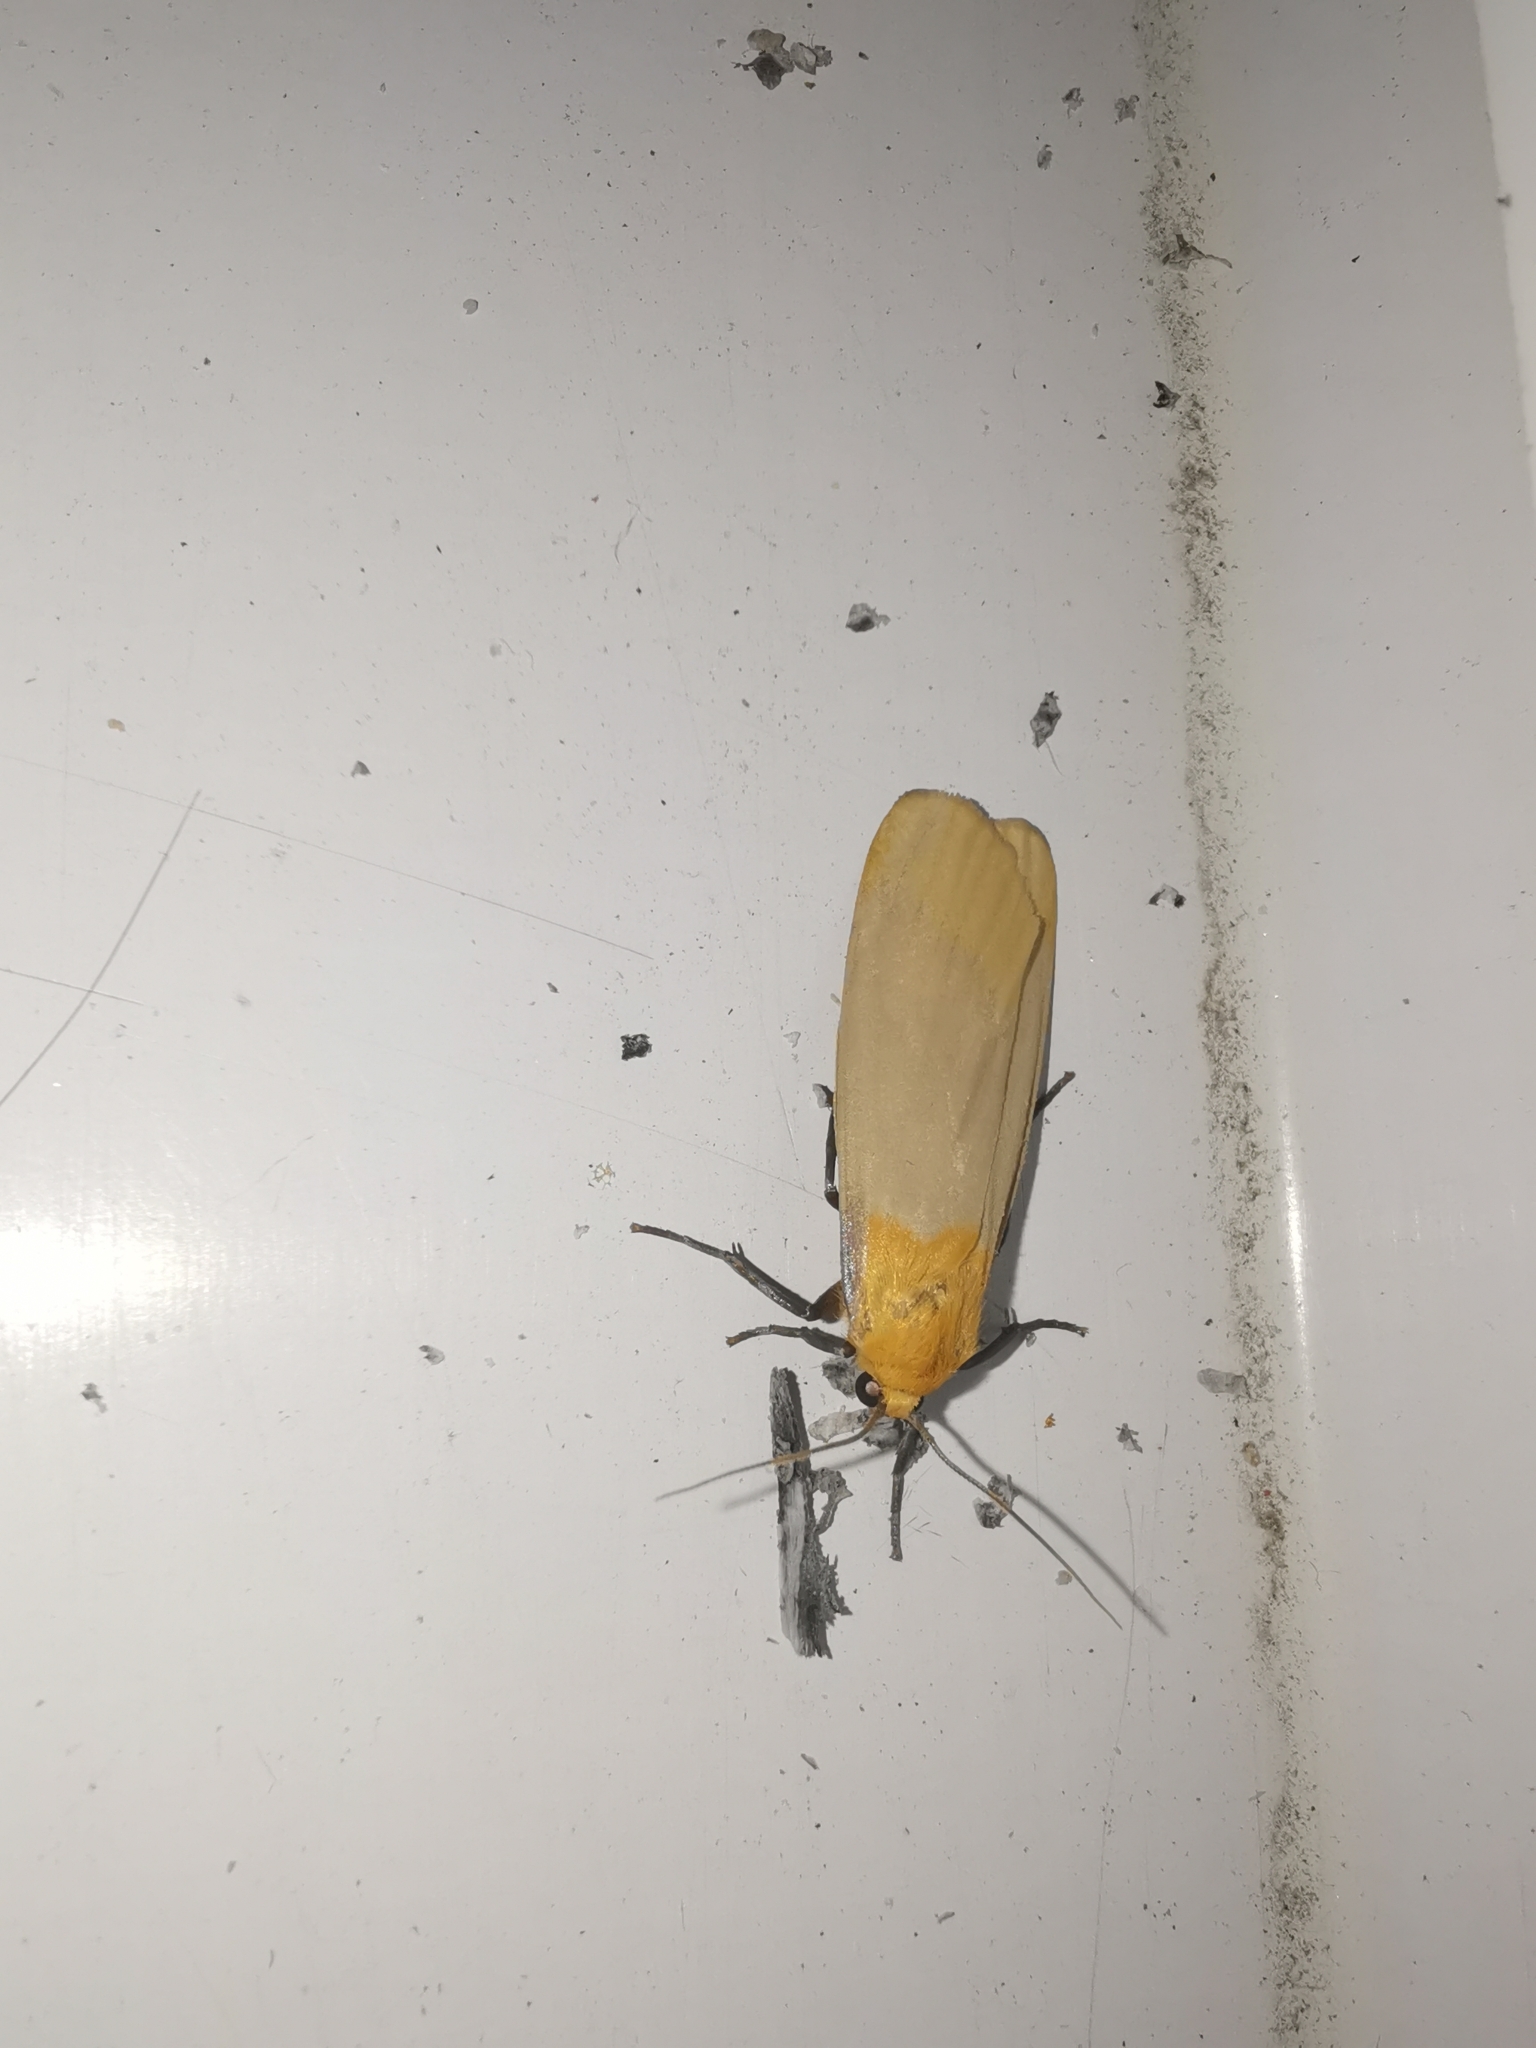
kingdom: Animalia
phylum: Arthropoda
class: Insecta
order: Lepidoptera
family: Erebidae
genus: Lithosia
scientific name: Lithosia quadra
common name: Four-spotted footman
